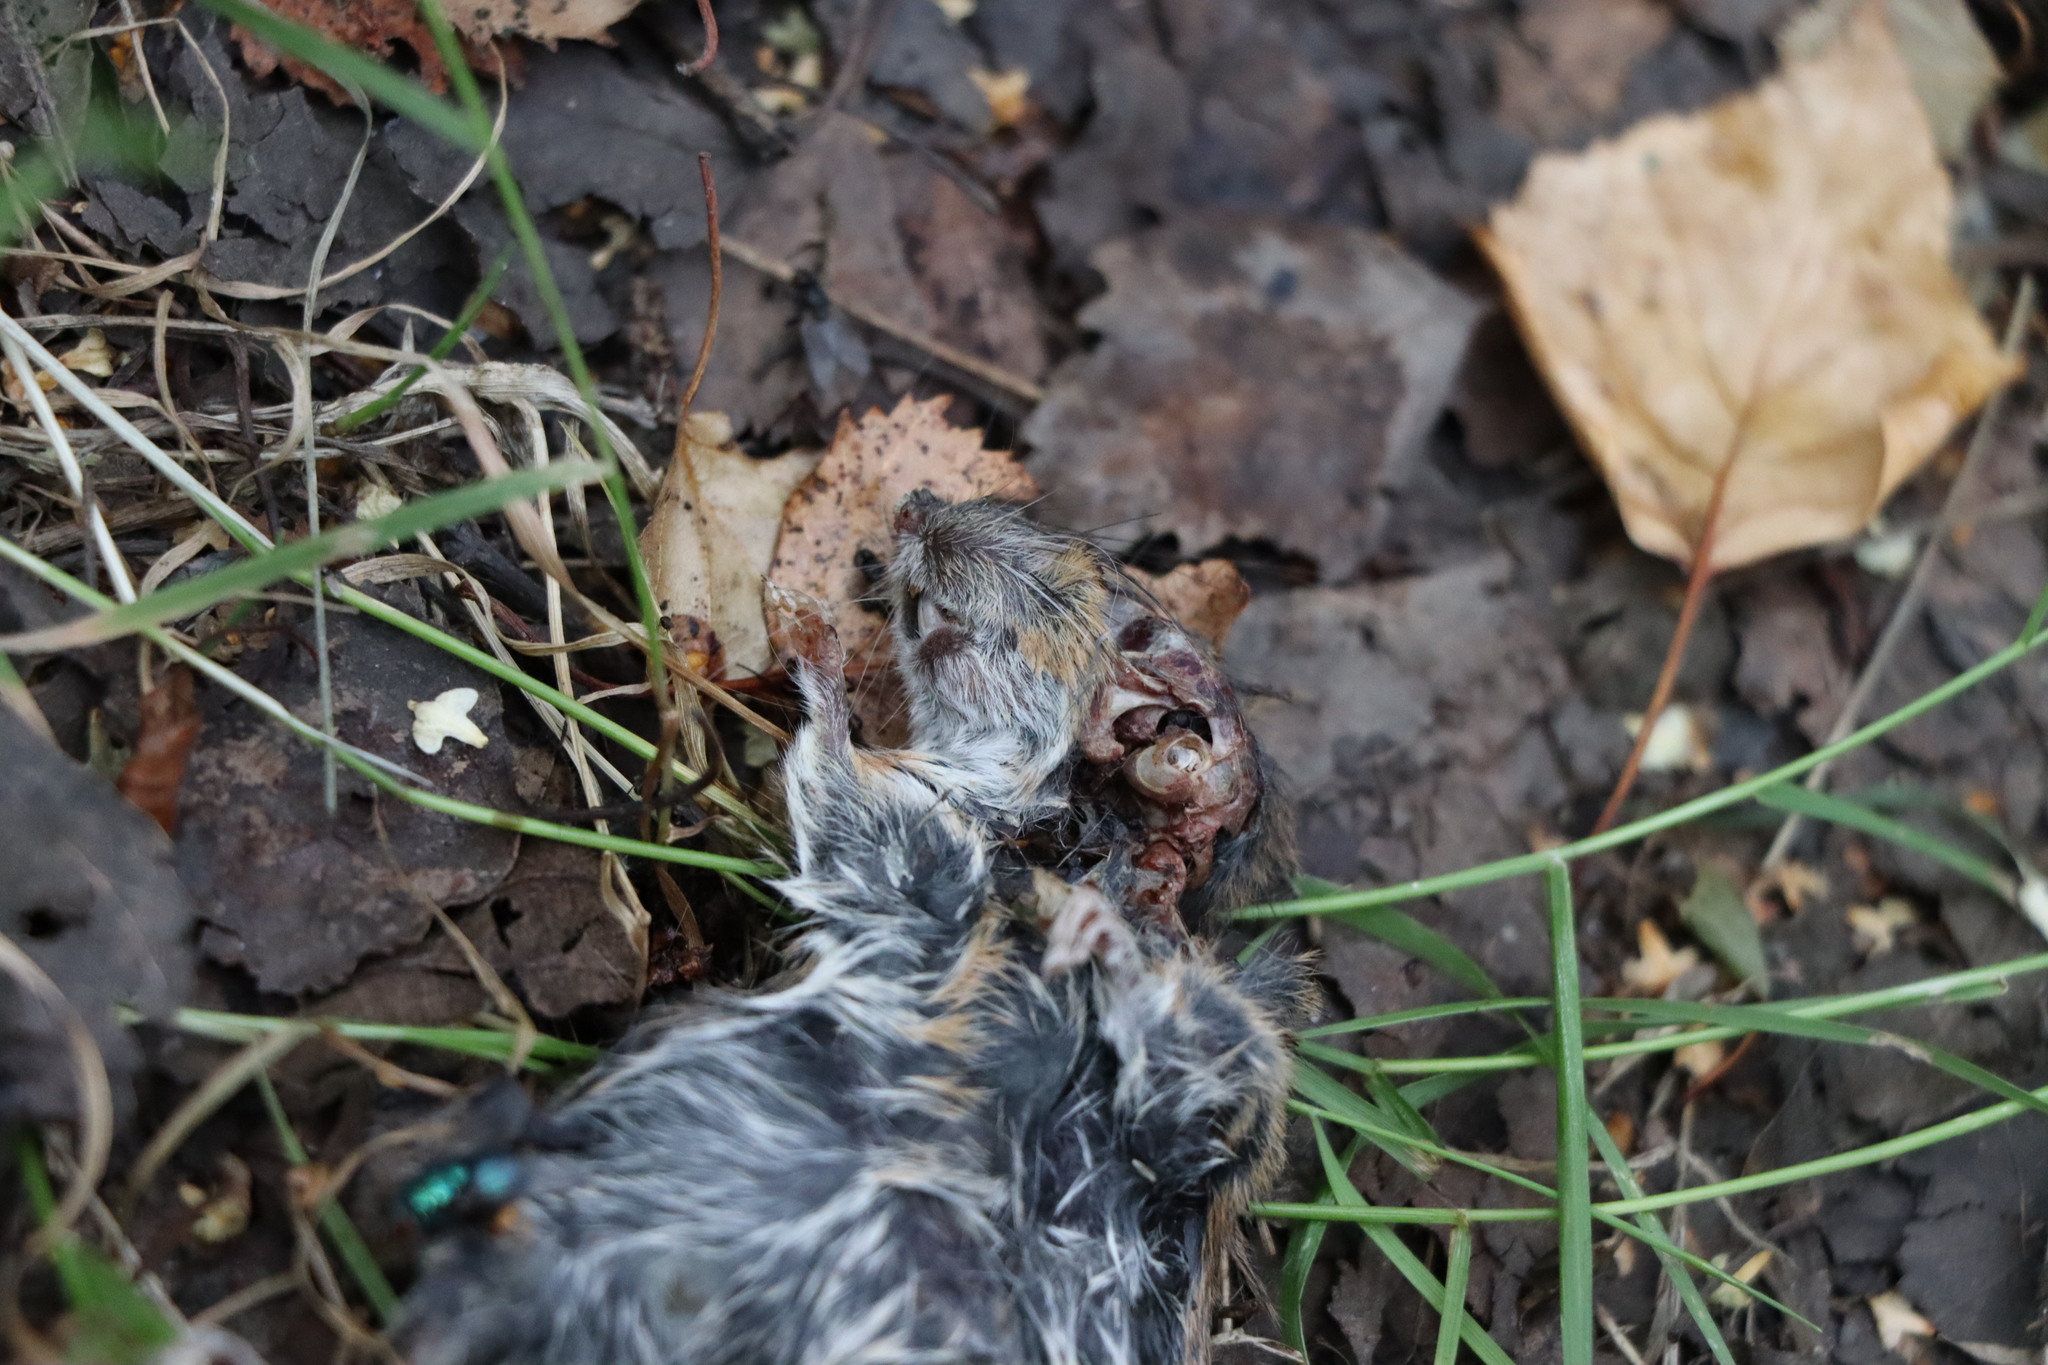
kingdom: Animalia
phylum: Chordata
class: Mammalia
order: Rodentia
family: Muridae
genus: Apodemus
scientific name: Apodemus sylvaticus
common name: Wood mouse
